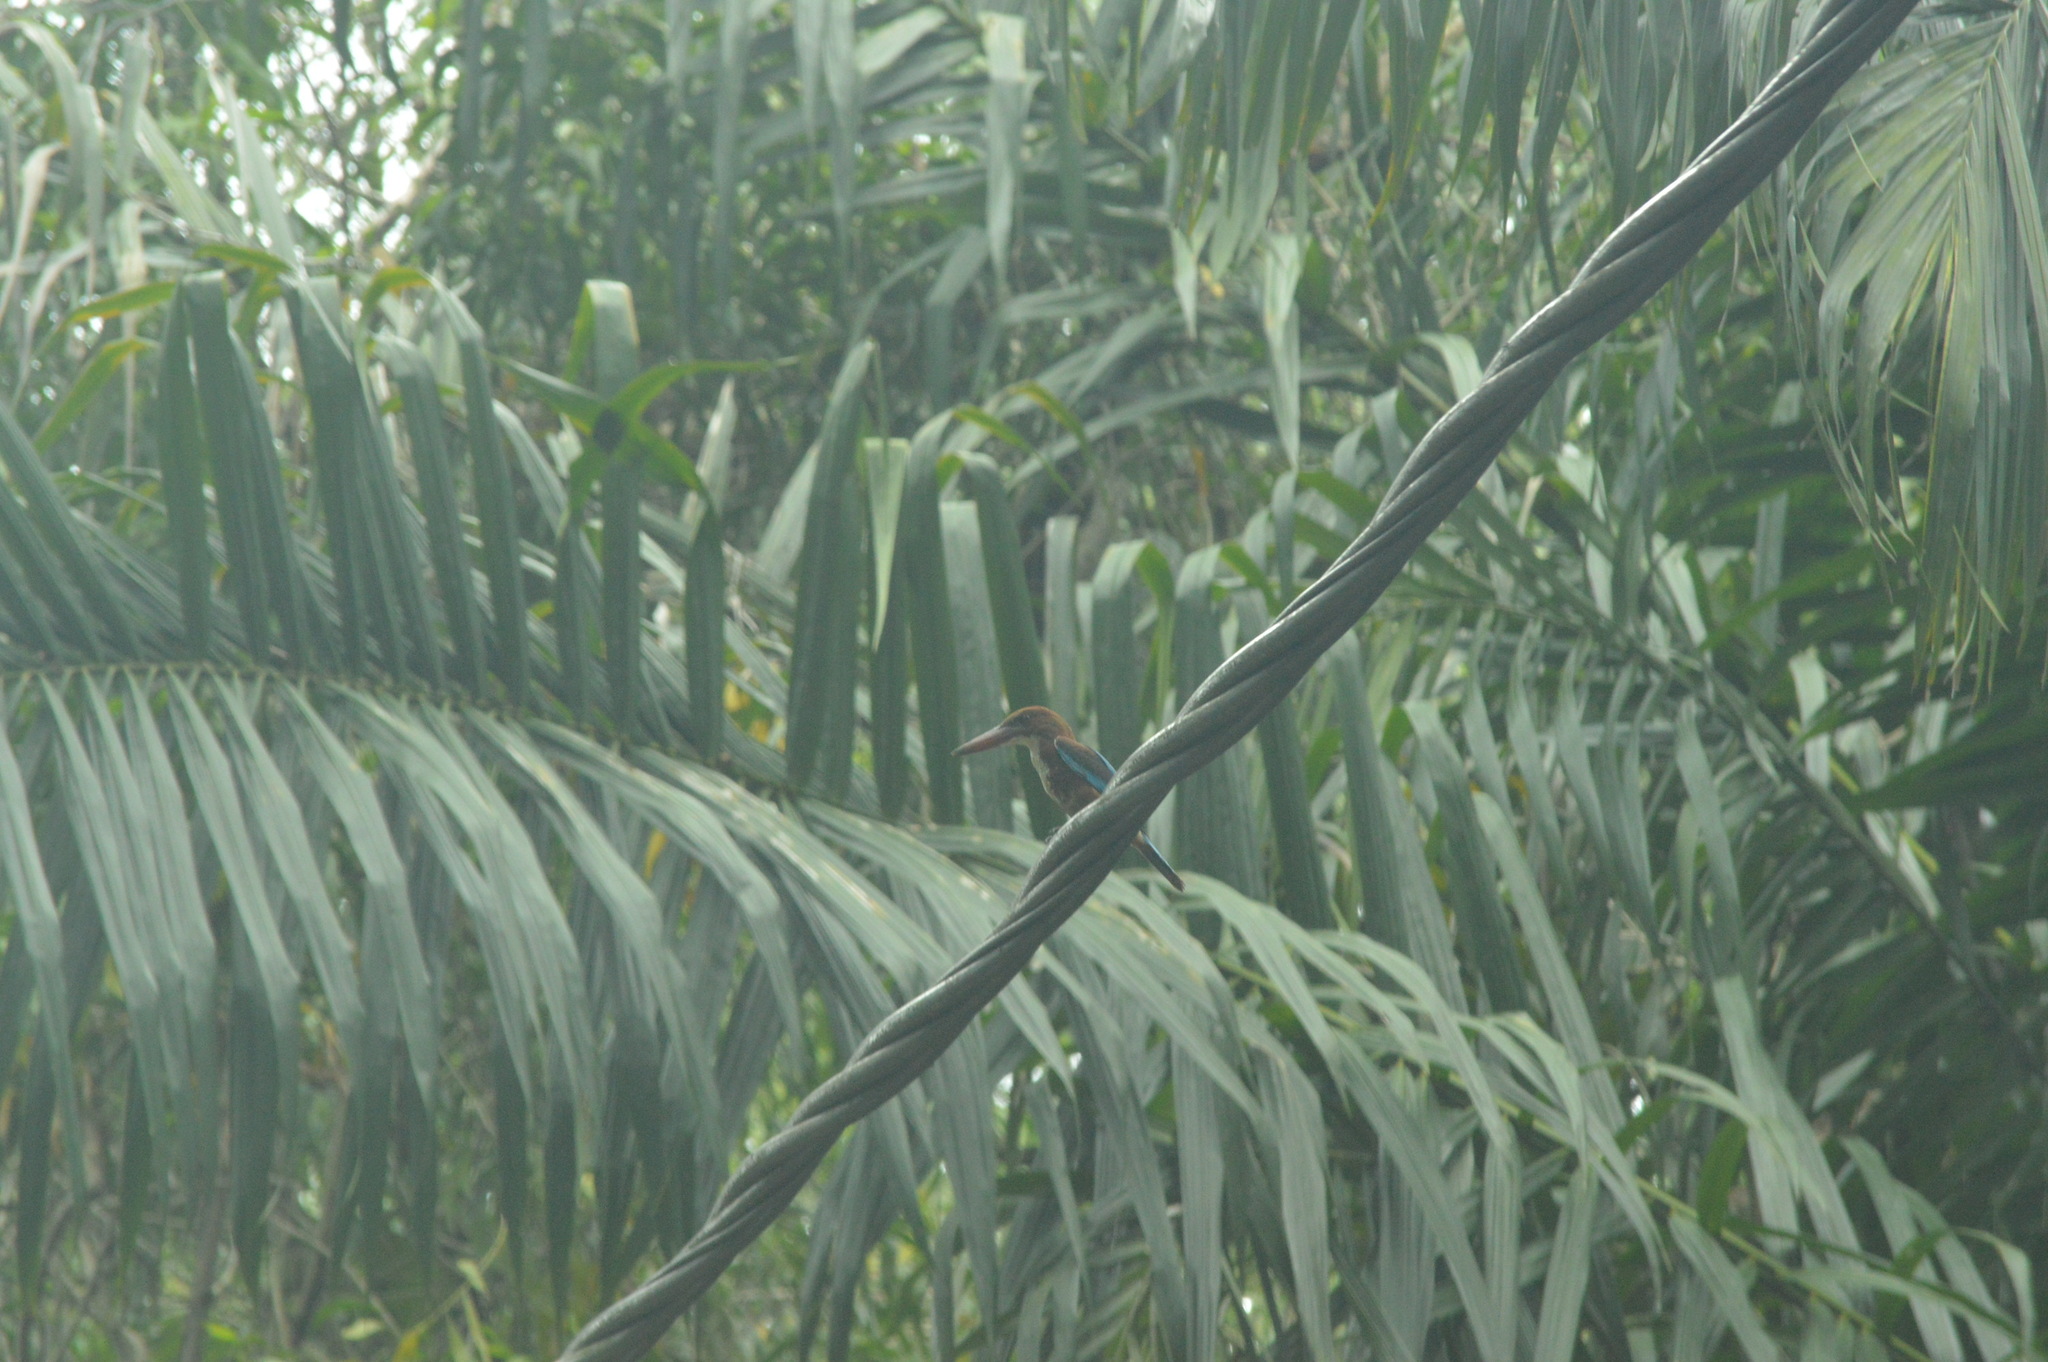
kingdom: Animalia
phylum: Chordata
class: Aves
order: Coraciiformes
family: Alcedinidae
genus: Halcyon
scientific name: Halcyon smyrnensis
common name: White-throated kingfisher
